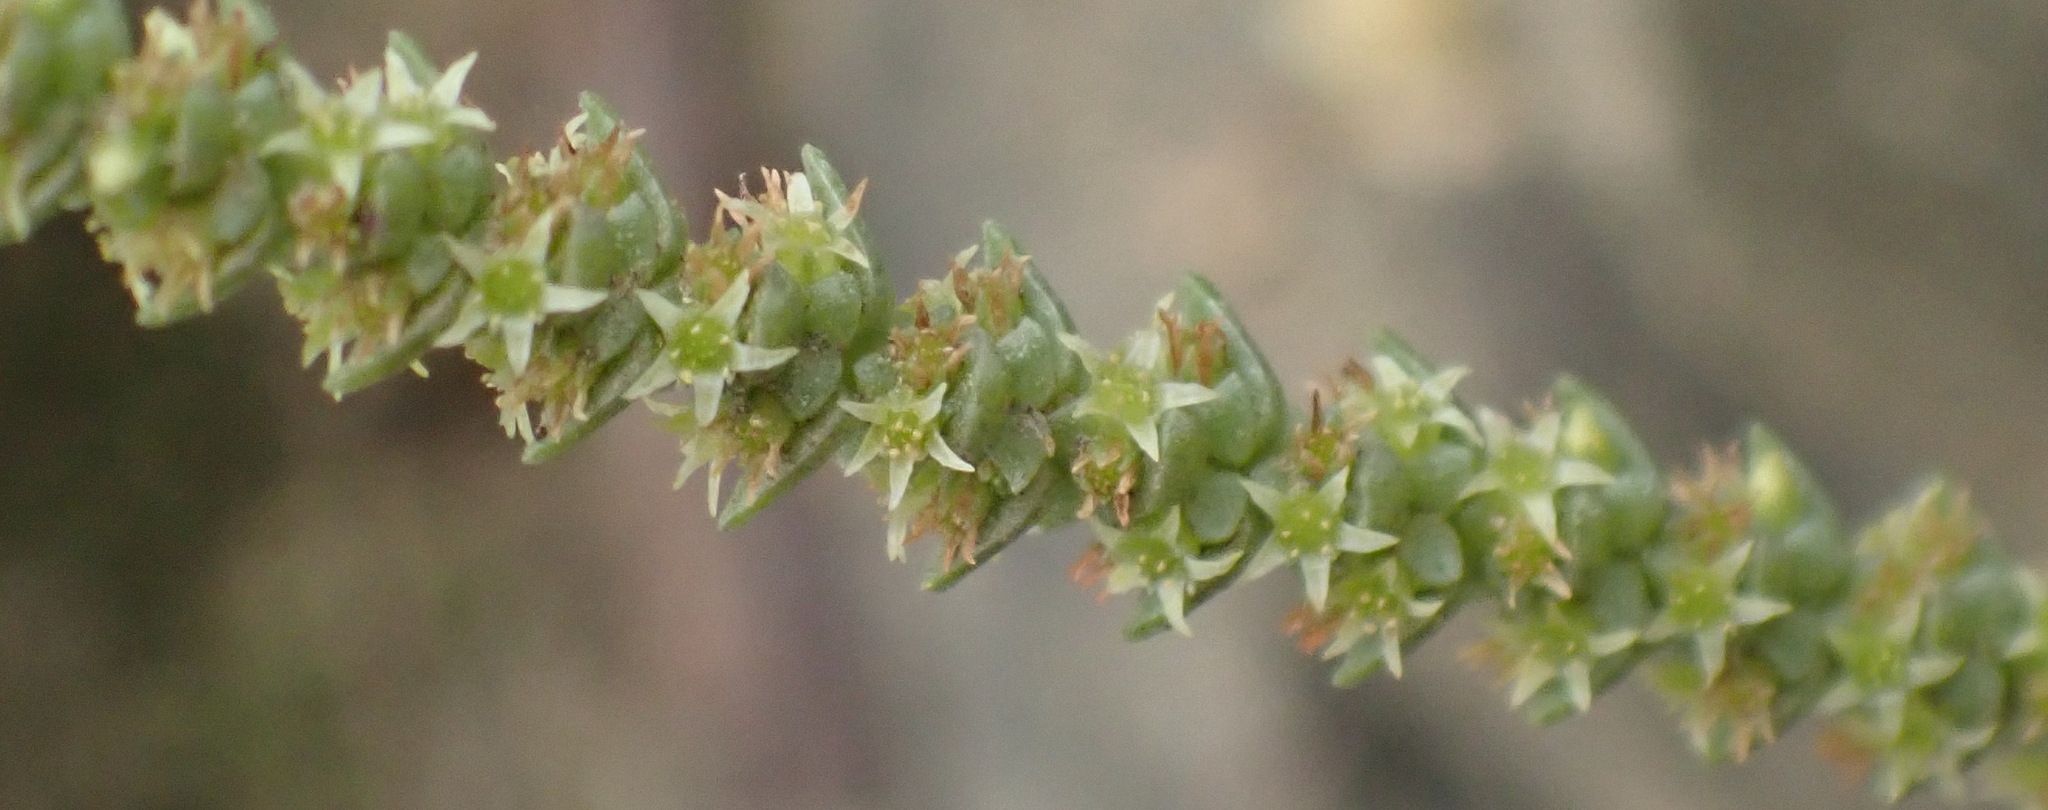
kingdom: Plantae
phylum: Tracheophyta
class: Magnoliopsida
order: Saxifragales
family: Crassulaceae
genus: Crassula
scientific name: Crassula muscosa
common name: Toy-cypress
